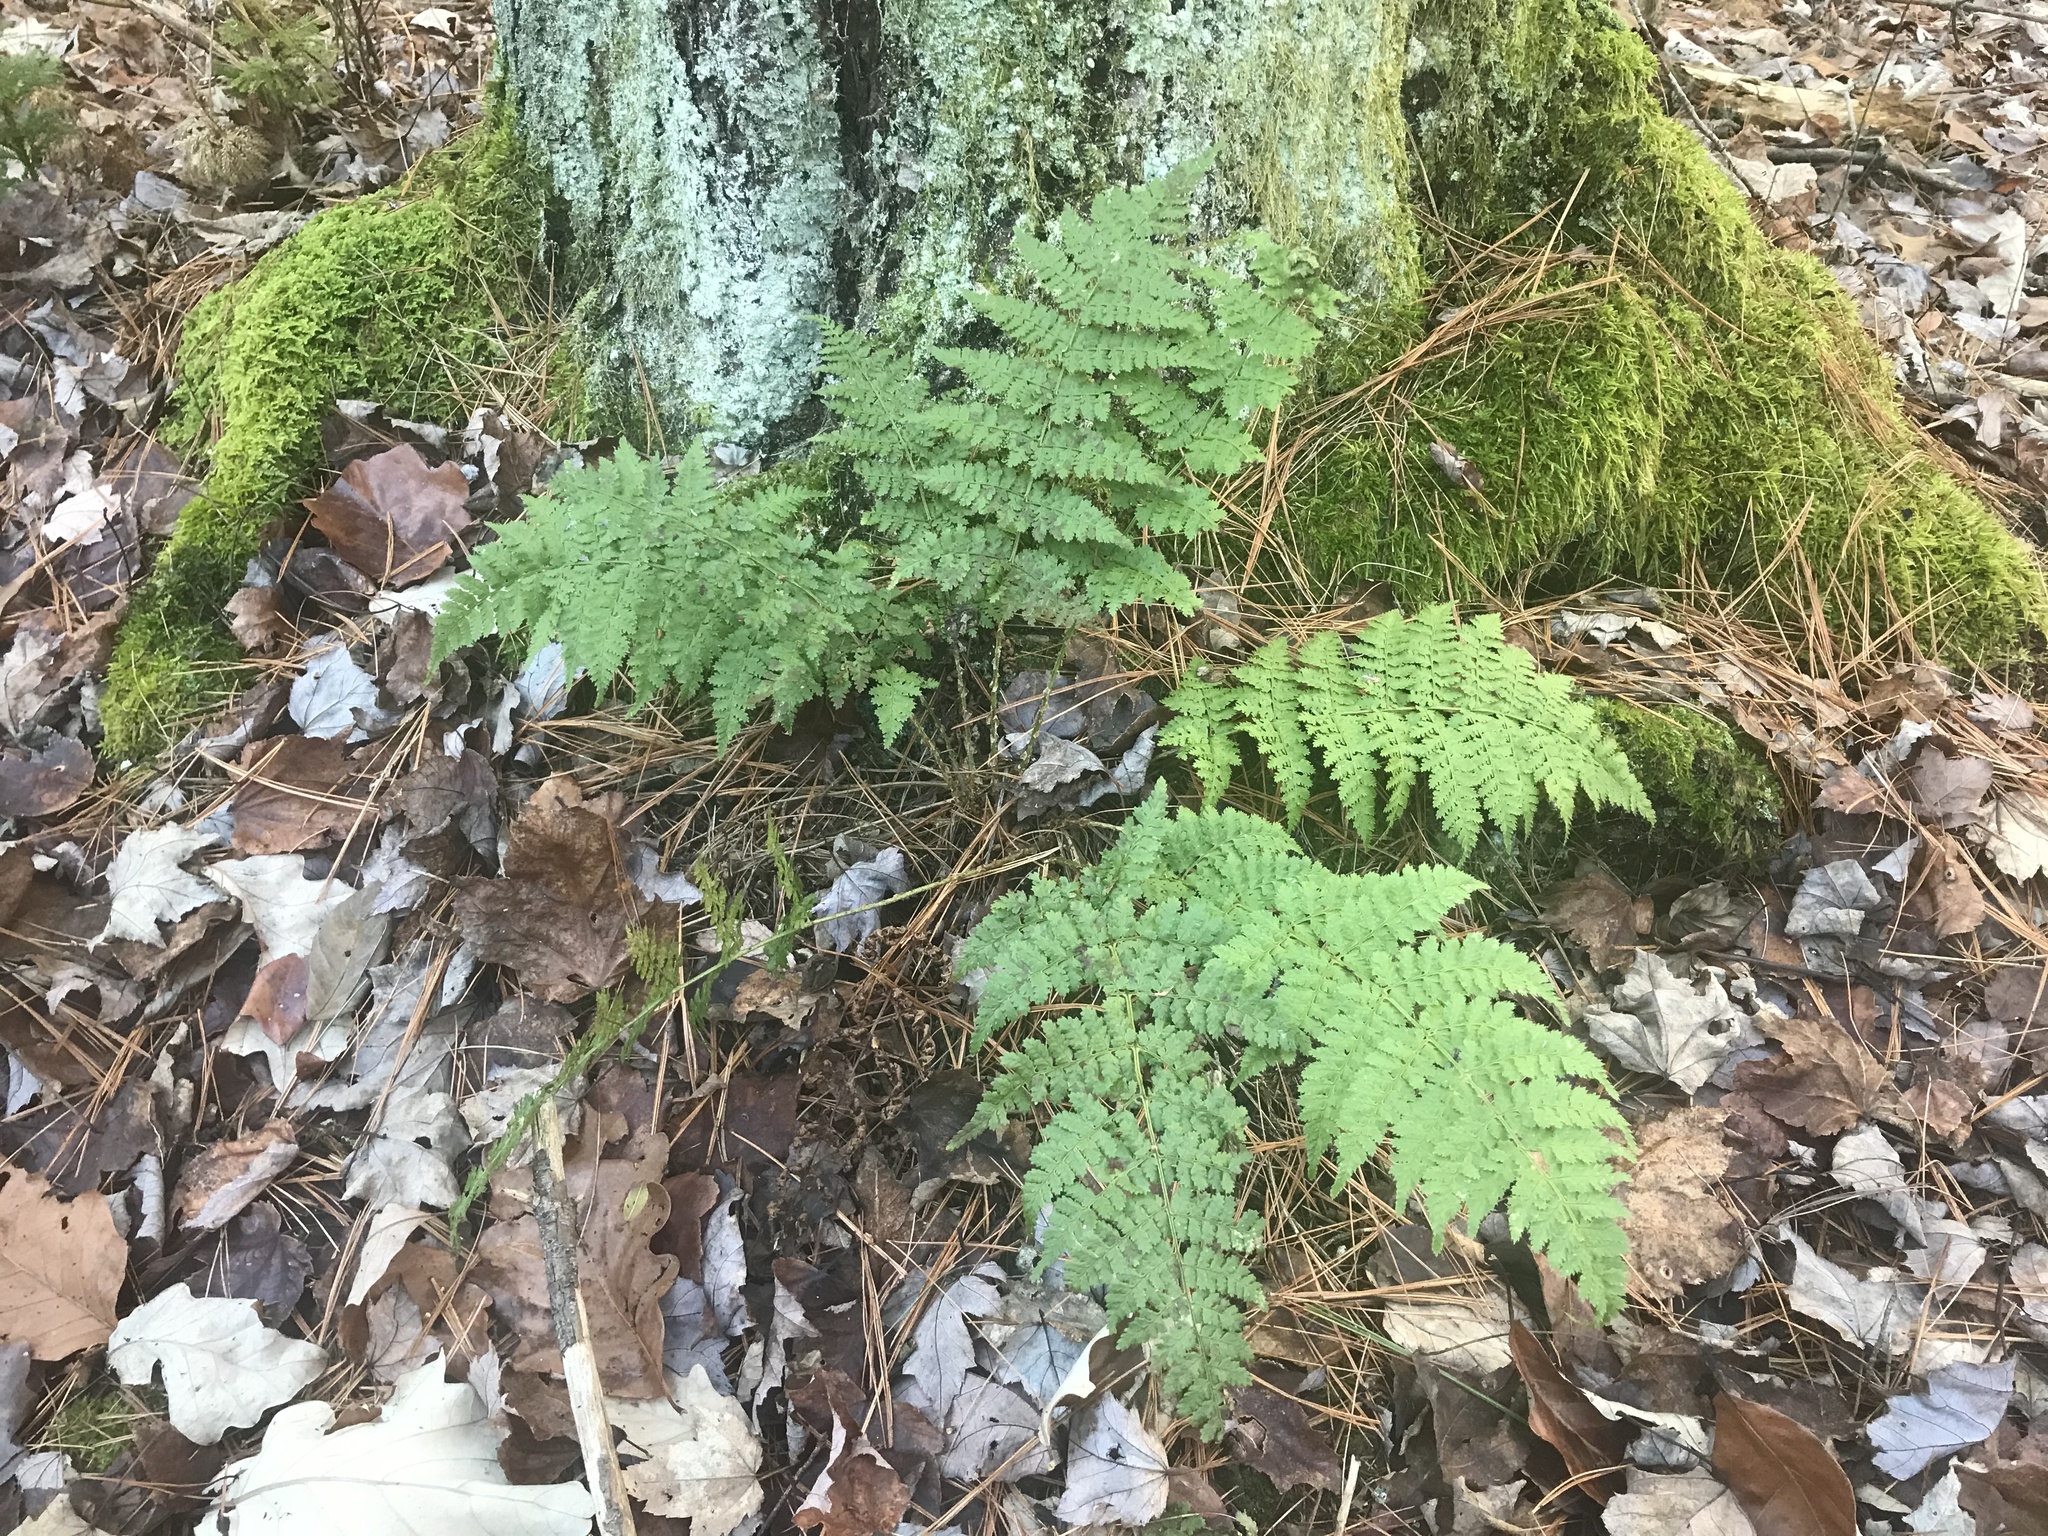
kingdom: Plantae
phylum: Tracheophyta
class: Polypodiopsida
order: Polypodiales
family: Dryopteridaceae
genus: Dryopteris
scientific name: Dryopteris intermedia
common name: Evergreen wood fern
